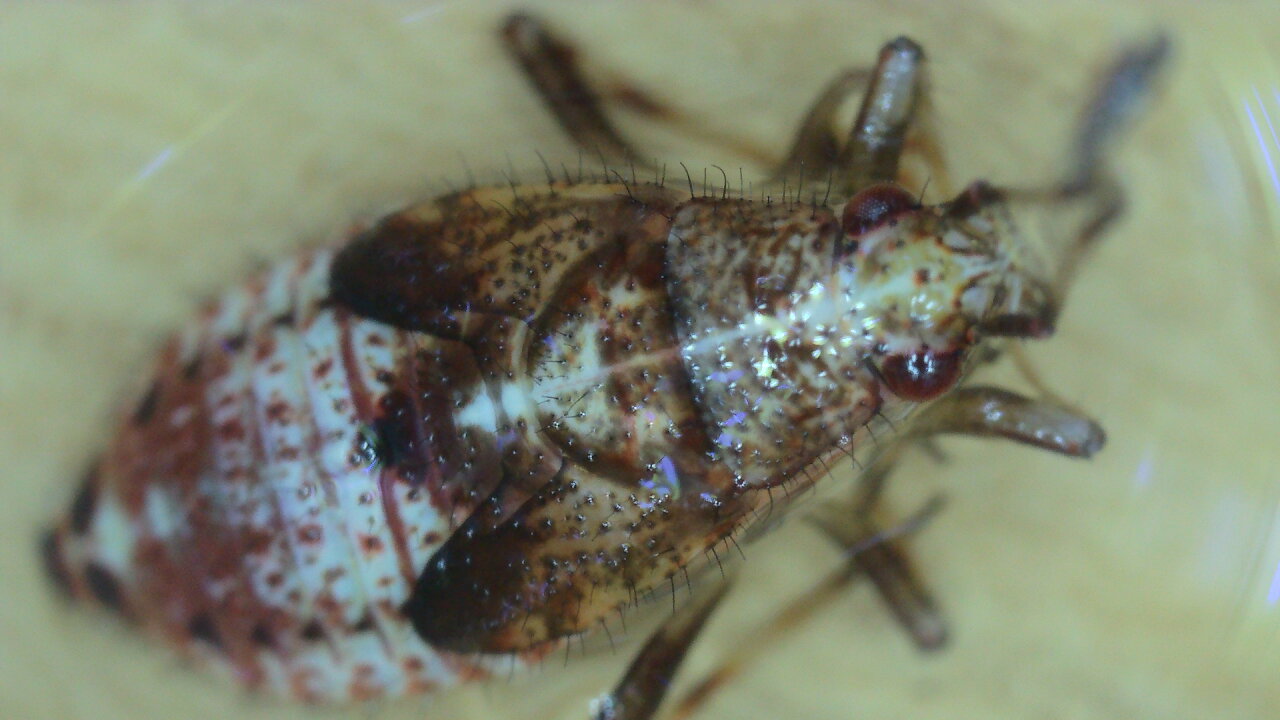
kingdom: Animalia
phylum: Arthropoda
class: Insecta
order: Hemiptera
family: Miridae
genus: Deraeocoris
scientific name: Deraeocoris flavilinea
